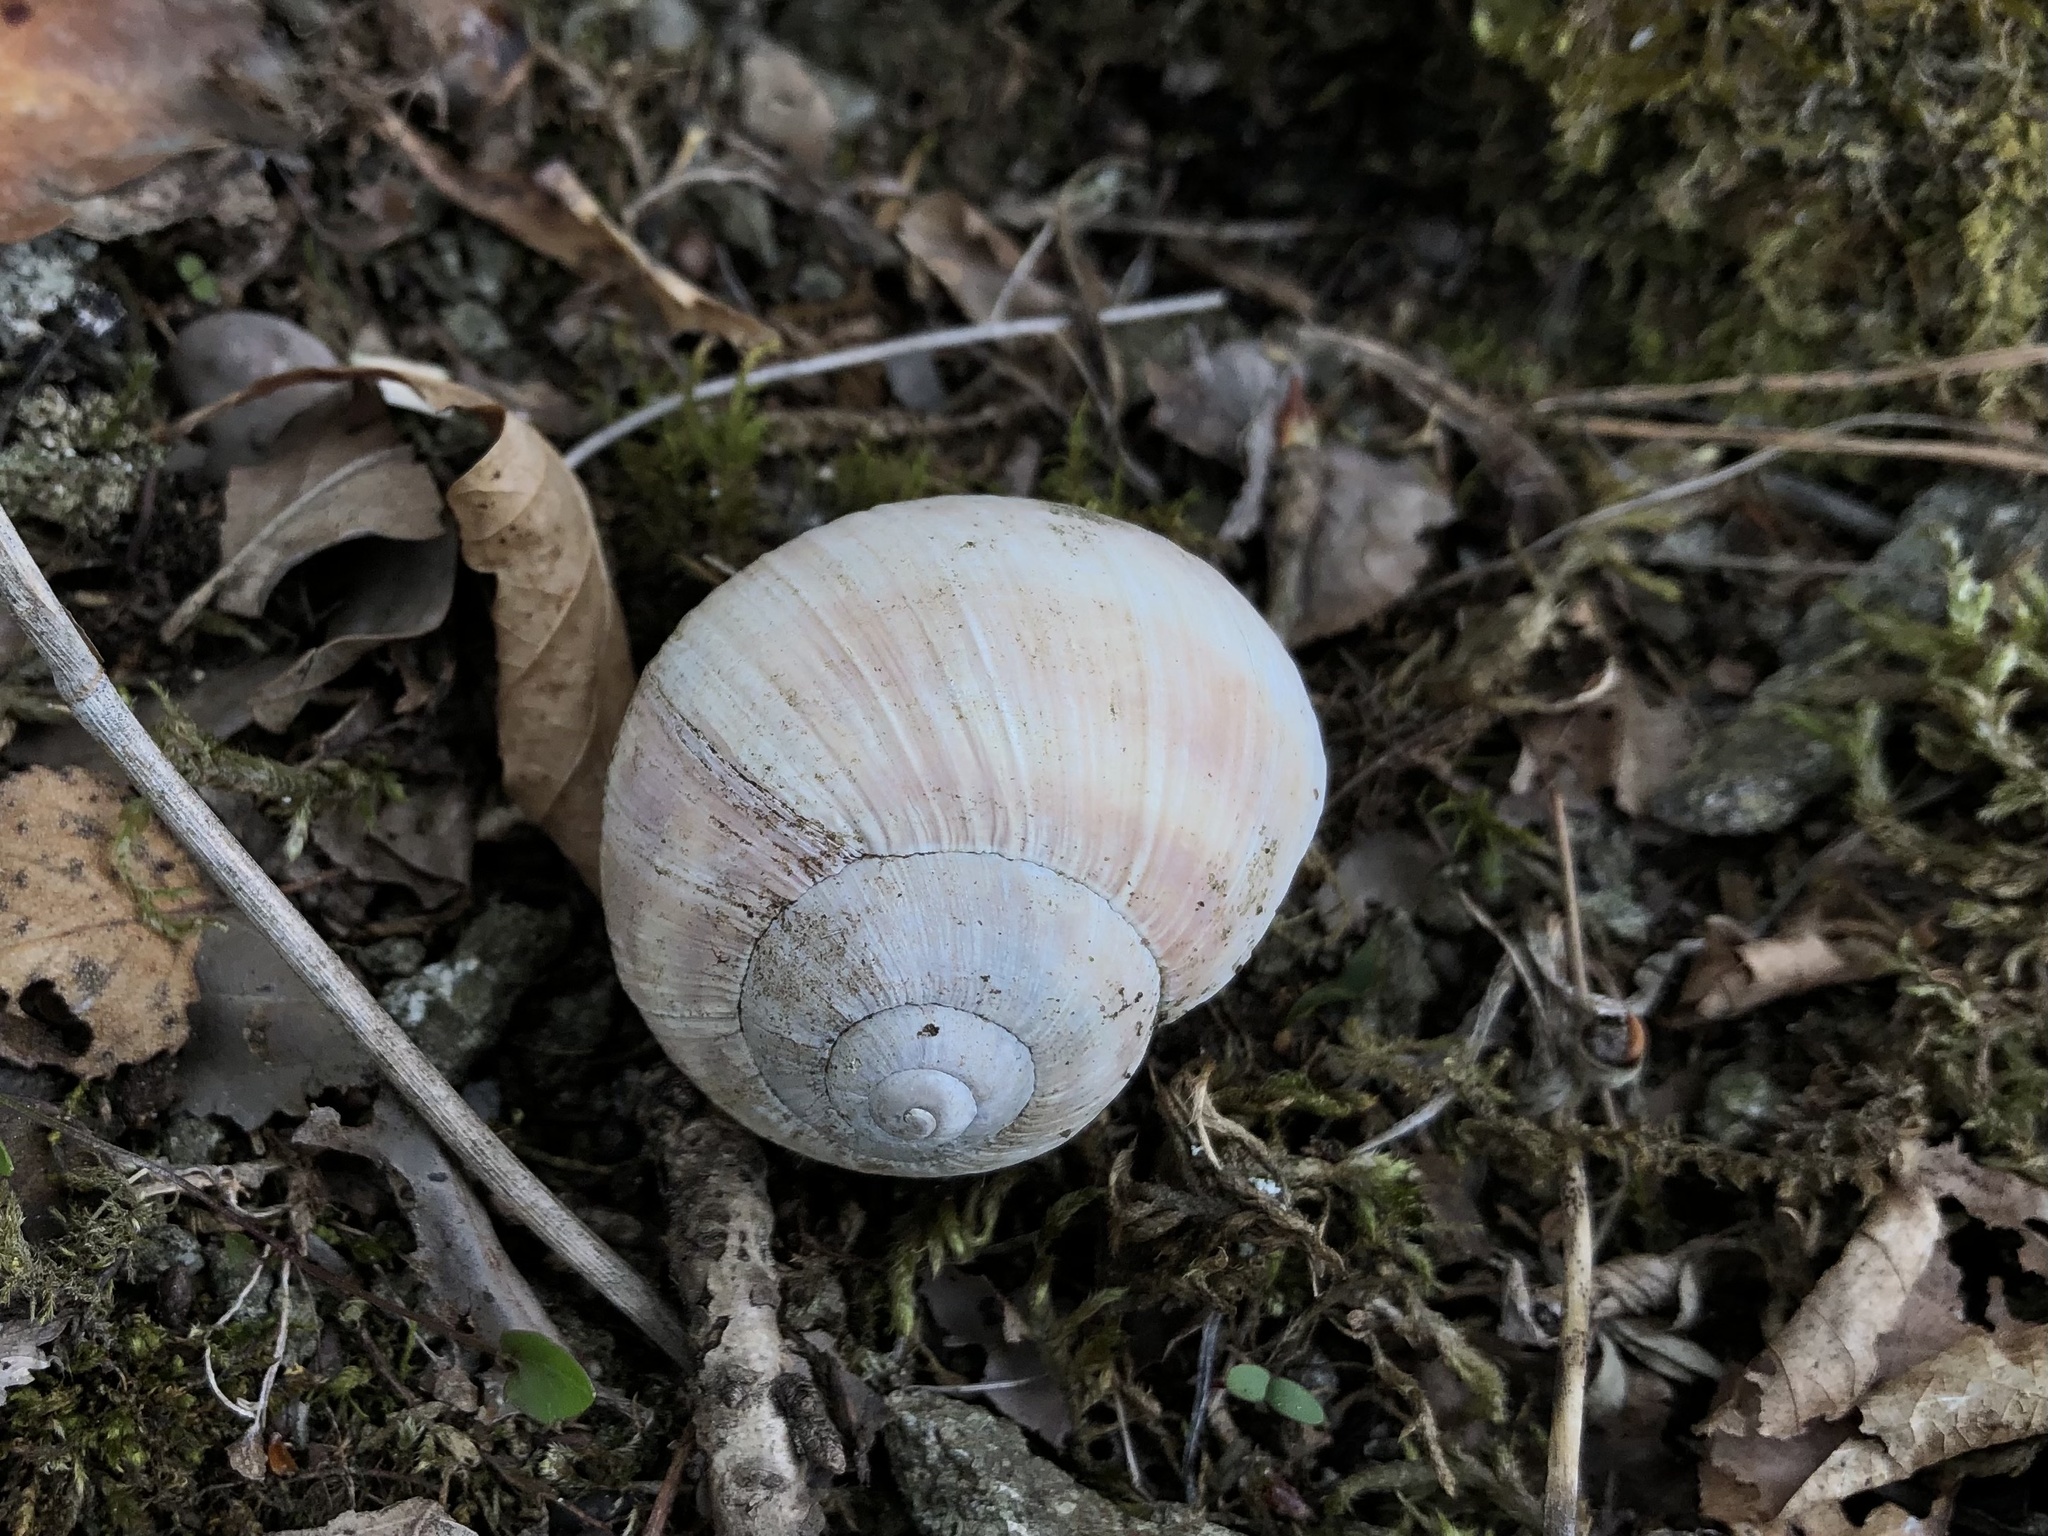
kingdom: Animalia
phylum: Mollusca
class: Gastropoda
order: Stylommatophora
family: Helicidae
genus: Helix
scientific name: Helix pomatia
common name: Roman snail
